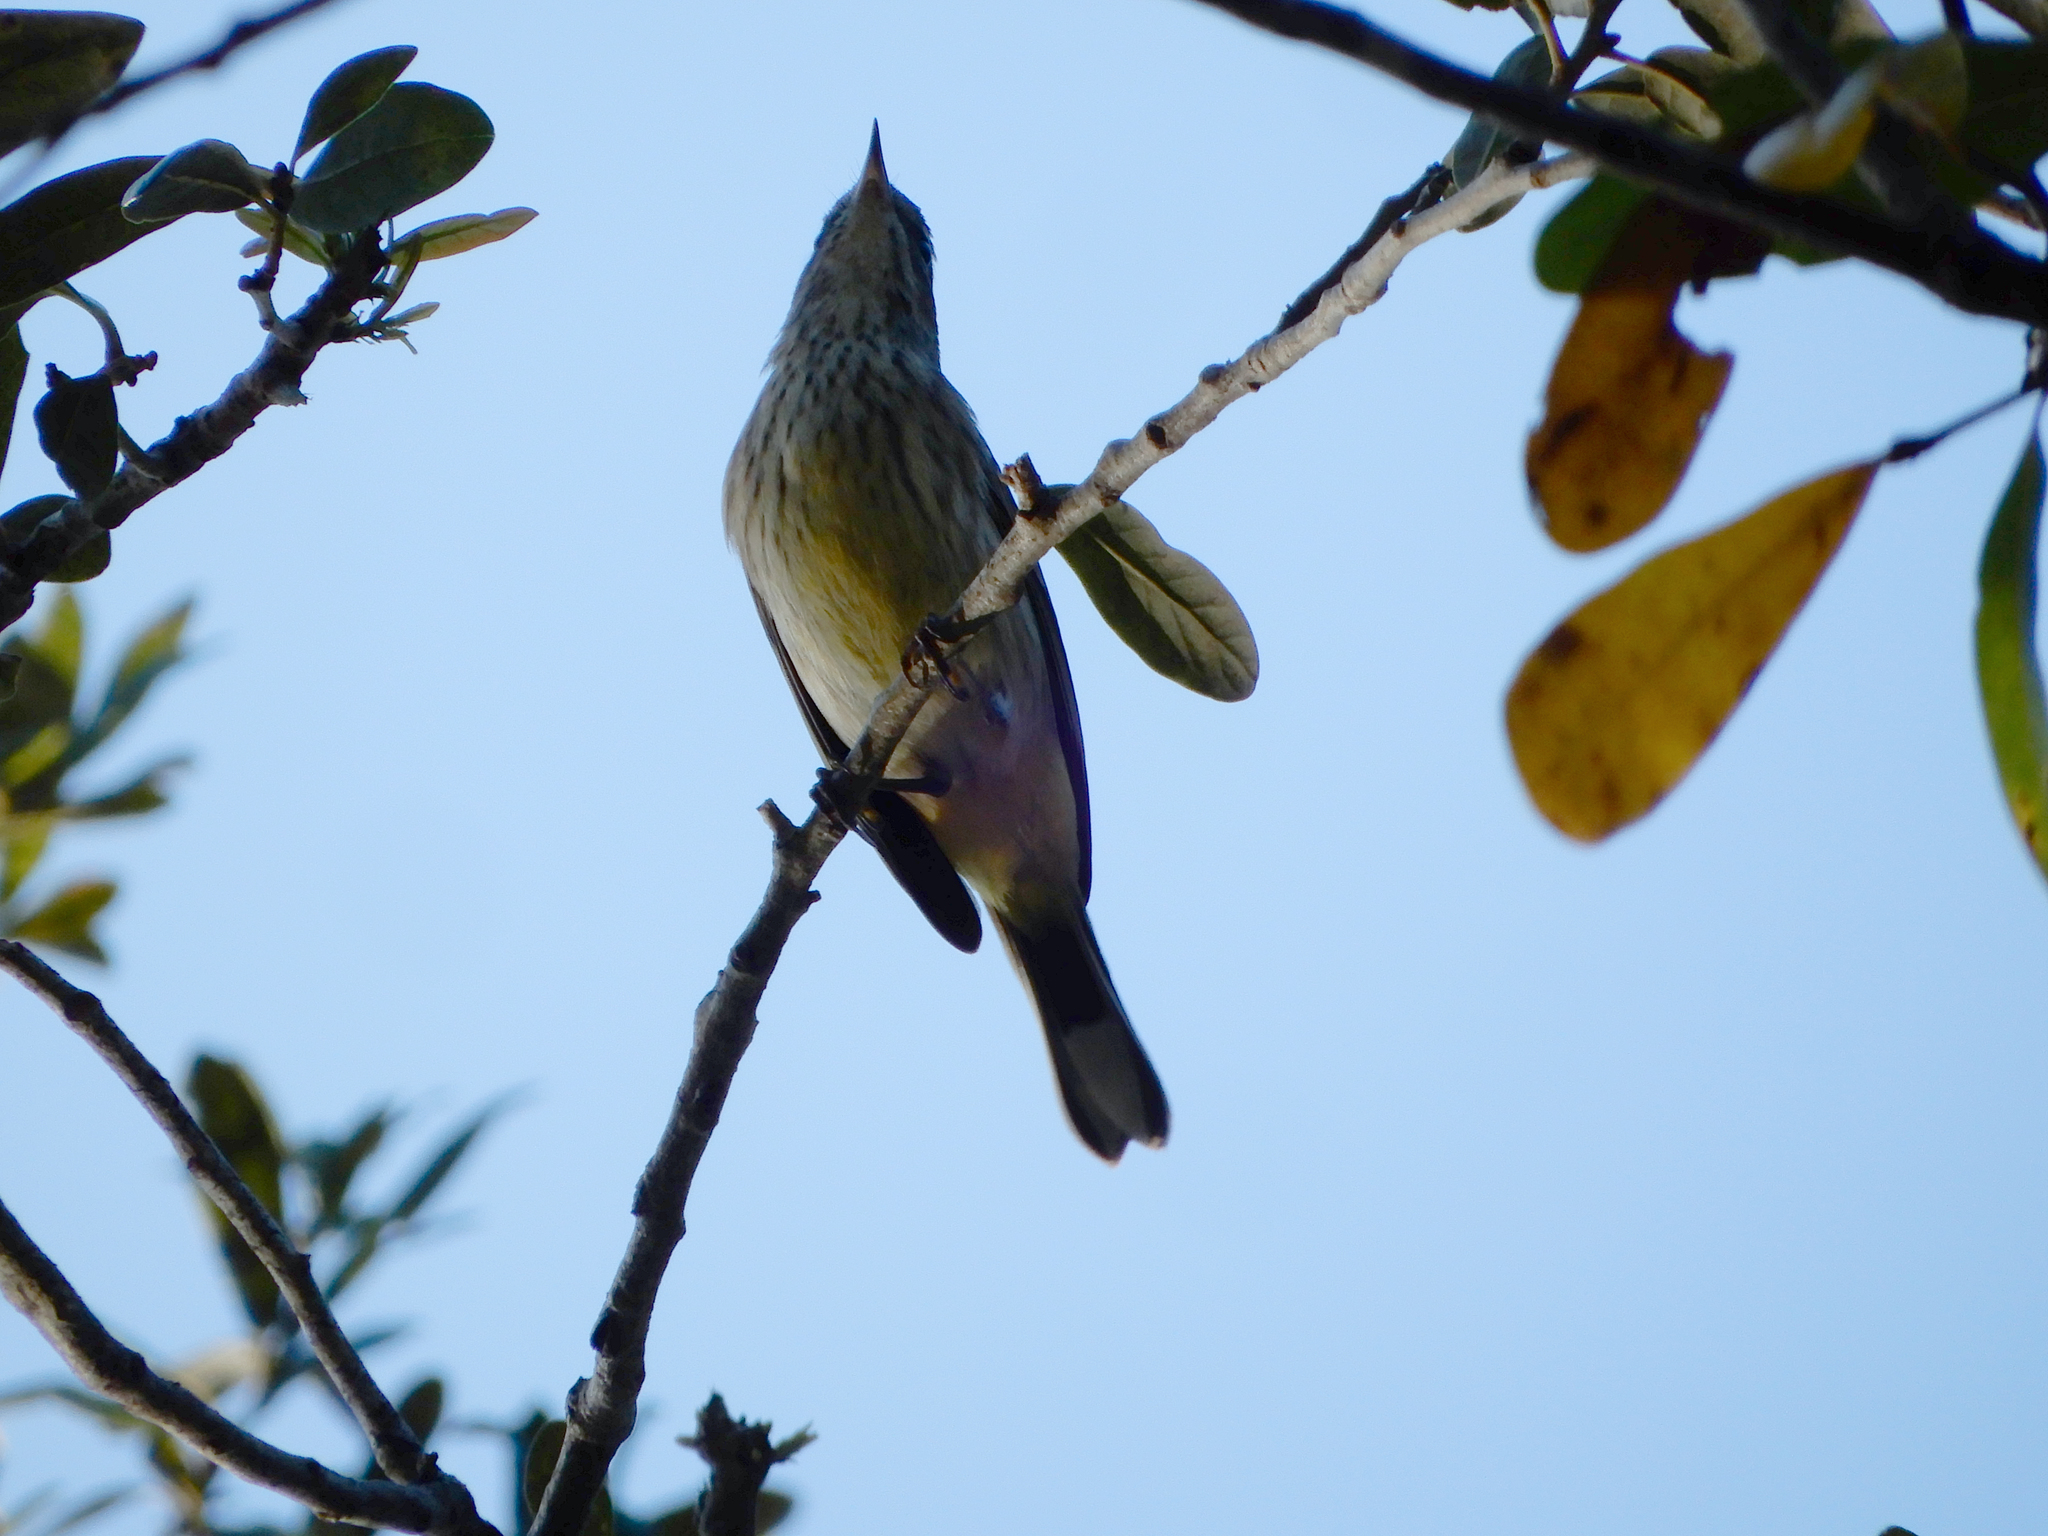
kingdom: Animalia
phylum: Chordata
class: Aves
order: Passeriformes
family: Parulidae
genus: Setophaga
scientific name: Setophaga palmarum
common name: Palm warbler
